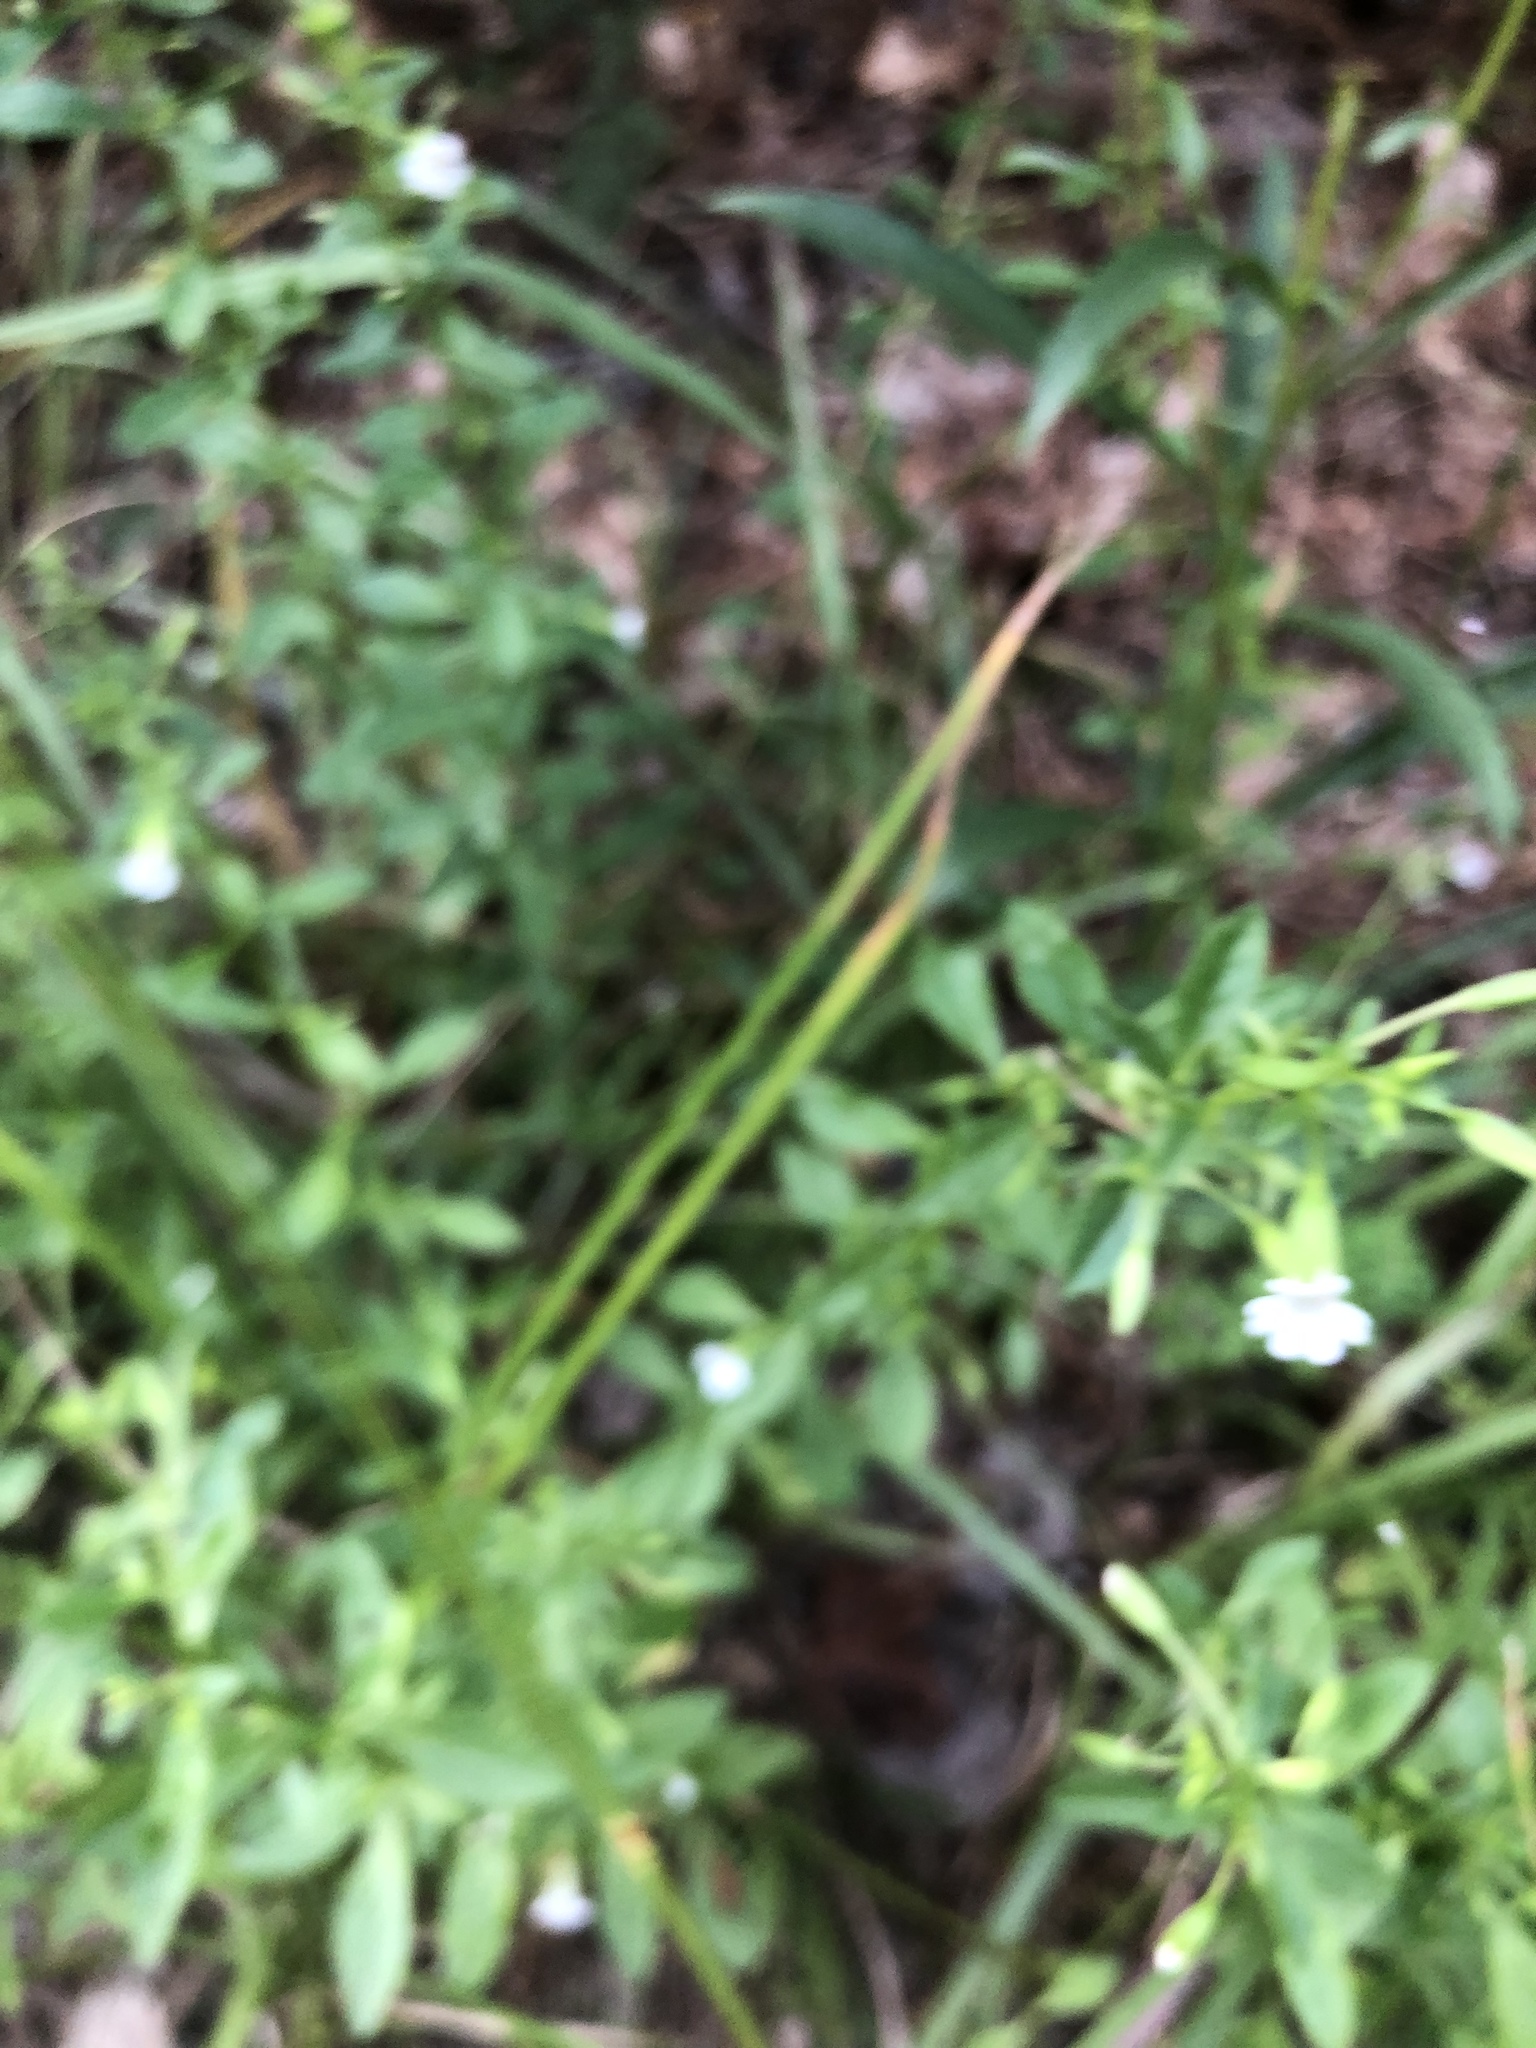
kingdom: Plantae
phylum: Tracheophyta
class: Magnoliopsida
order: Lamiales
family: Plantaginaceae
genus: Mecardonia
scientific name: Mecardonia acuminata
